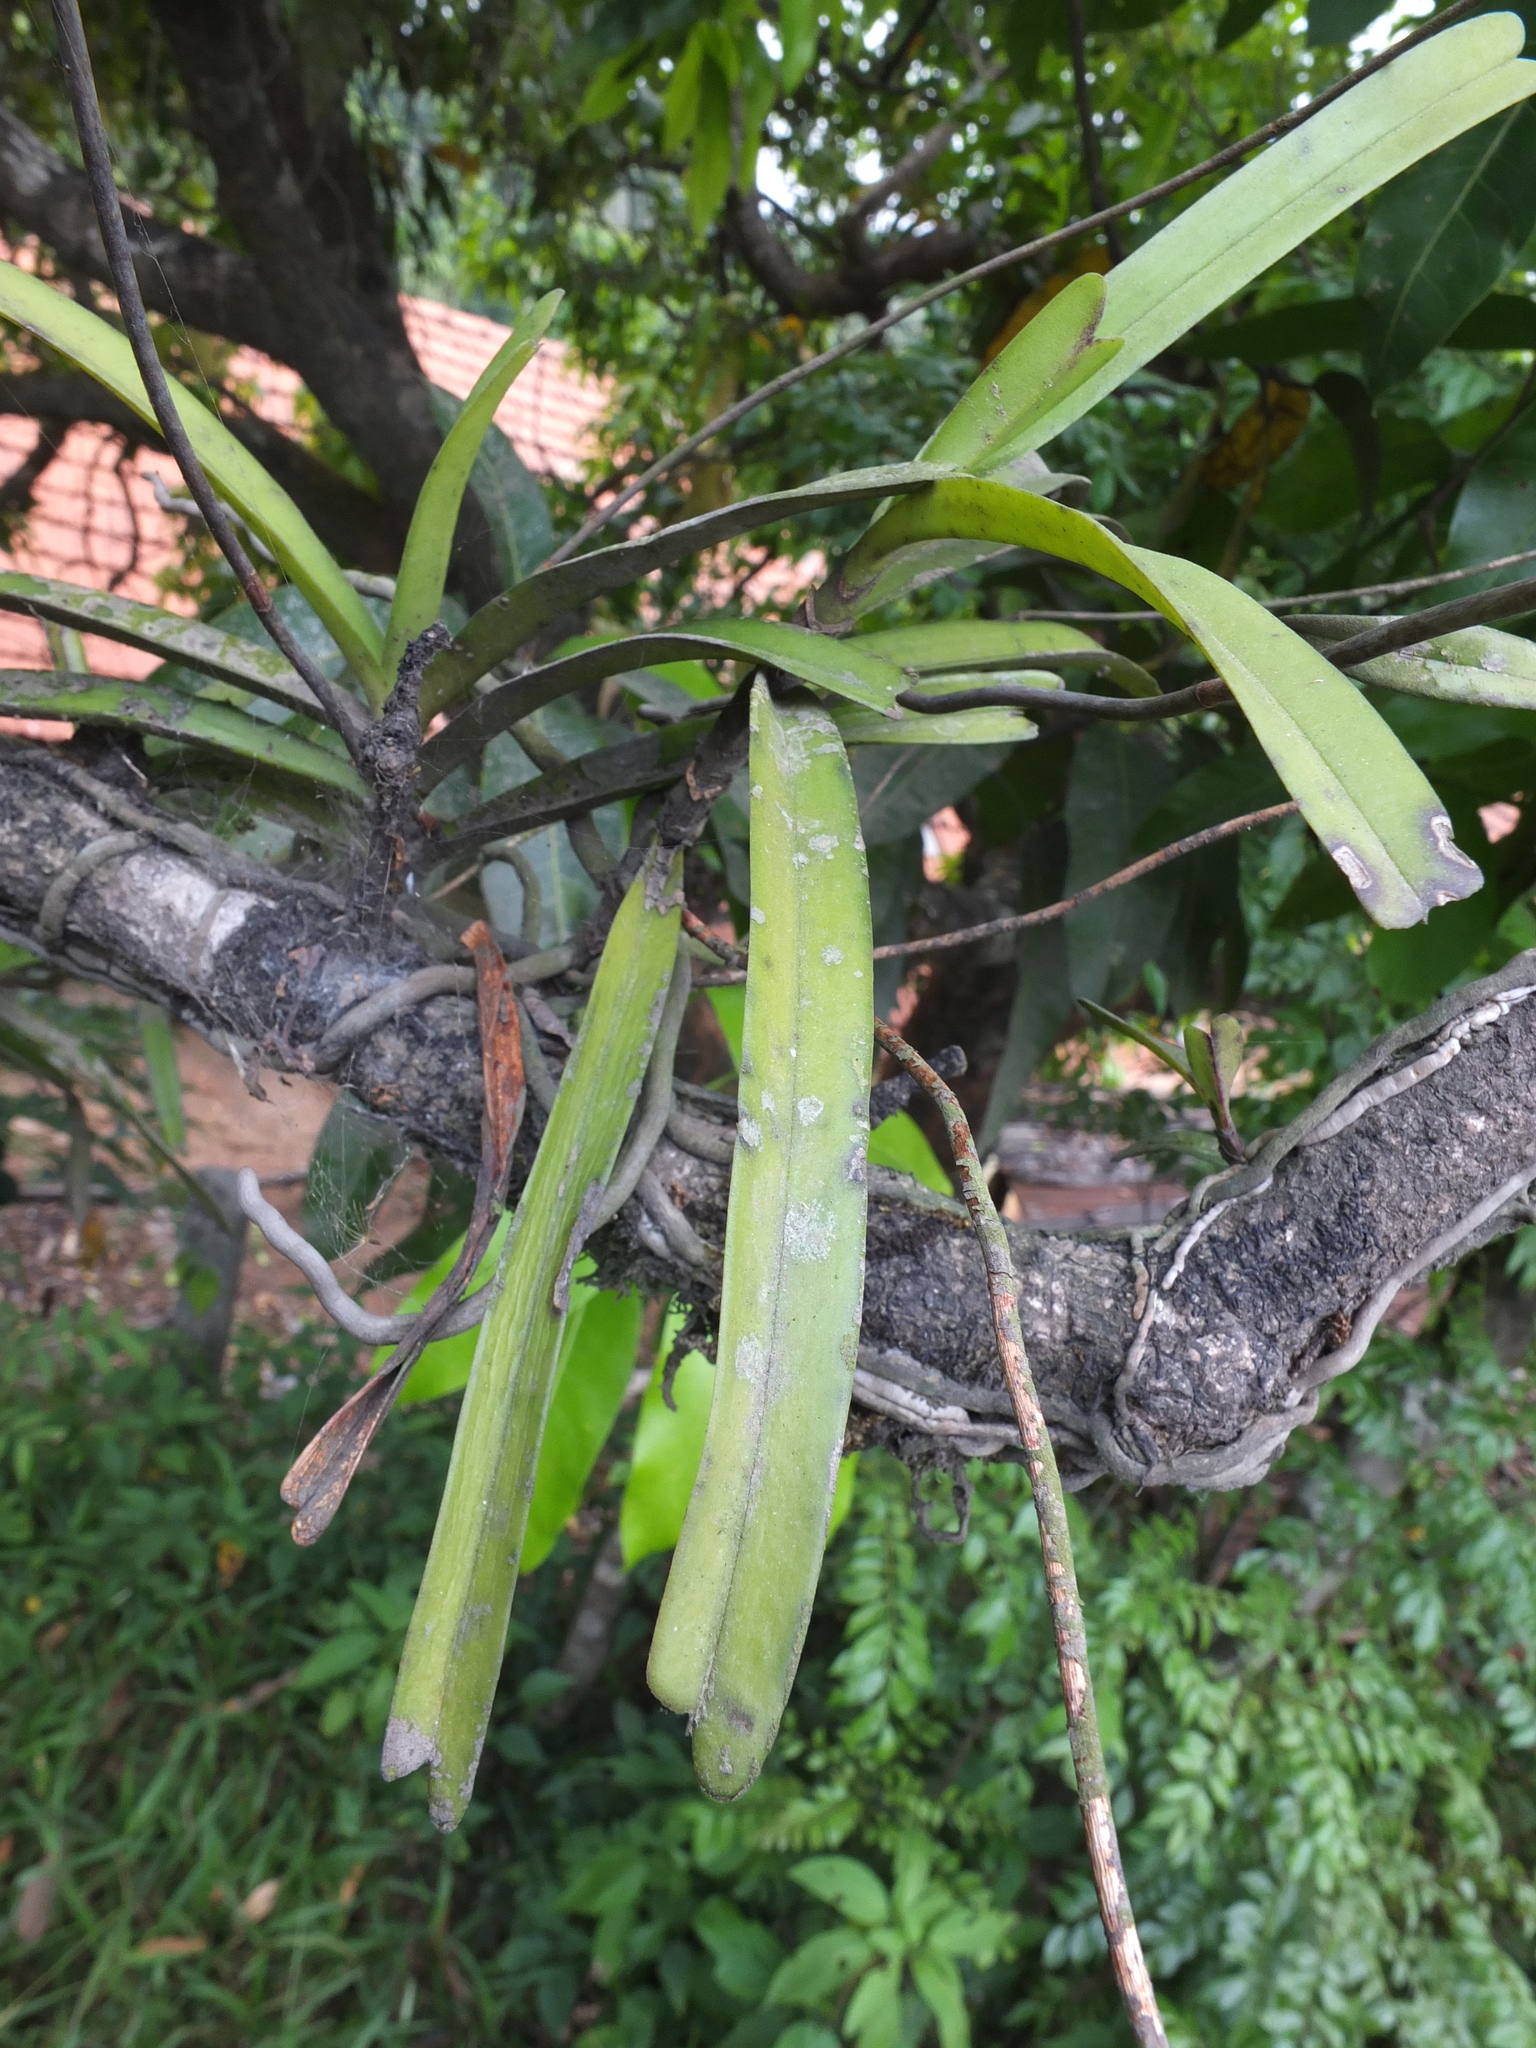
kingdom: Plantae
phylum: Tracheophyta
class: Liliopsida
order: Asparagales
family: Orchidaceae
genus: Cottonia
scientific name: Cottonia peduncularis
